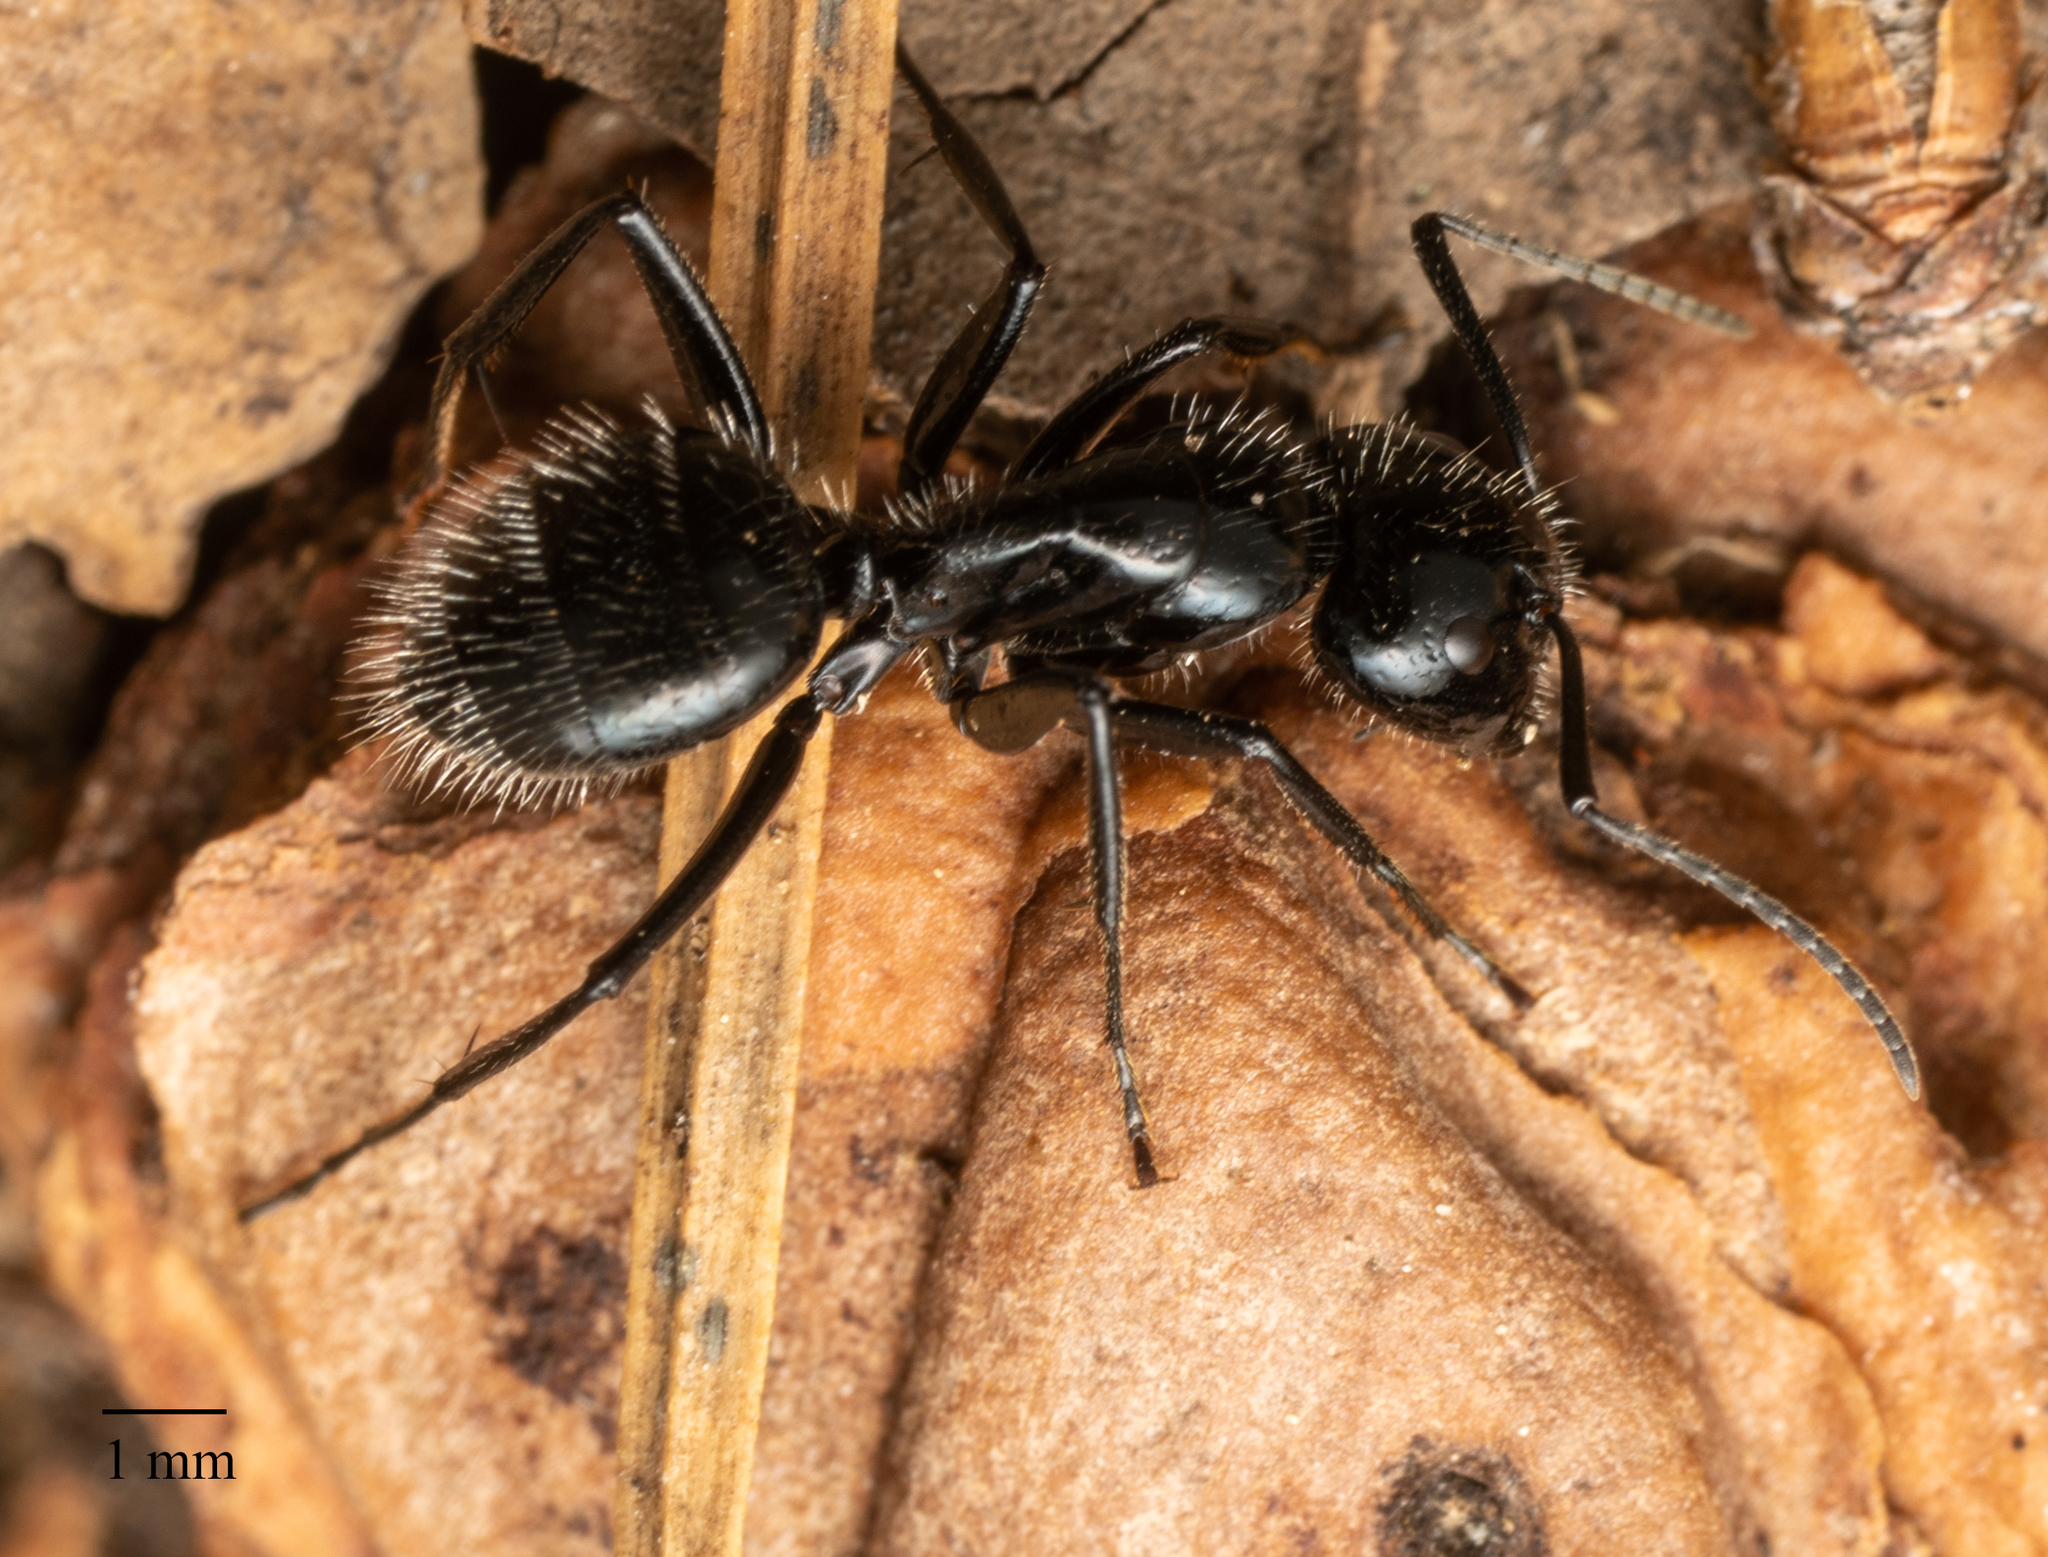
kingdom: Animalia
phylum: Arthropoda
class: Insecta
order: Hymenoptera
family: Formicidae
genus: Camponotus
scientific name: Camponotus
